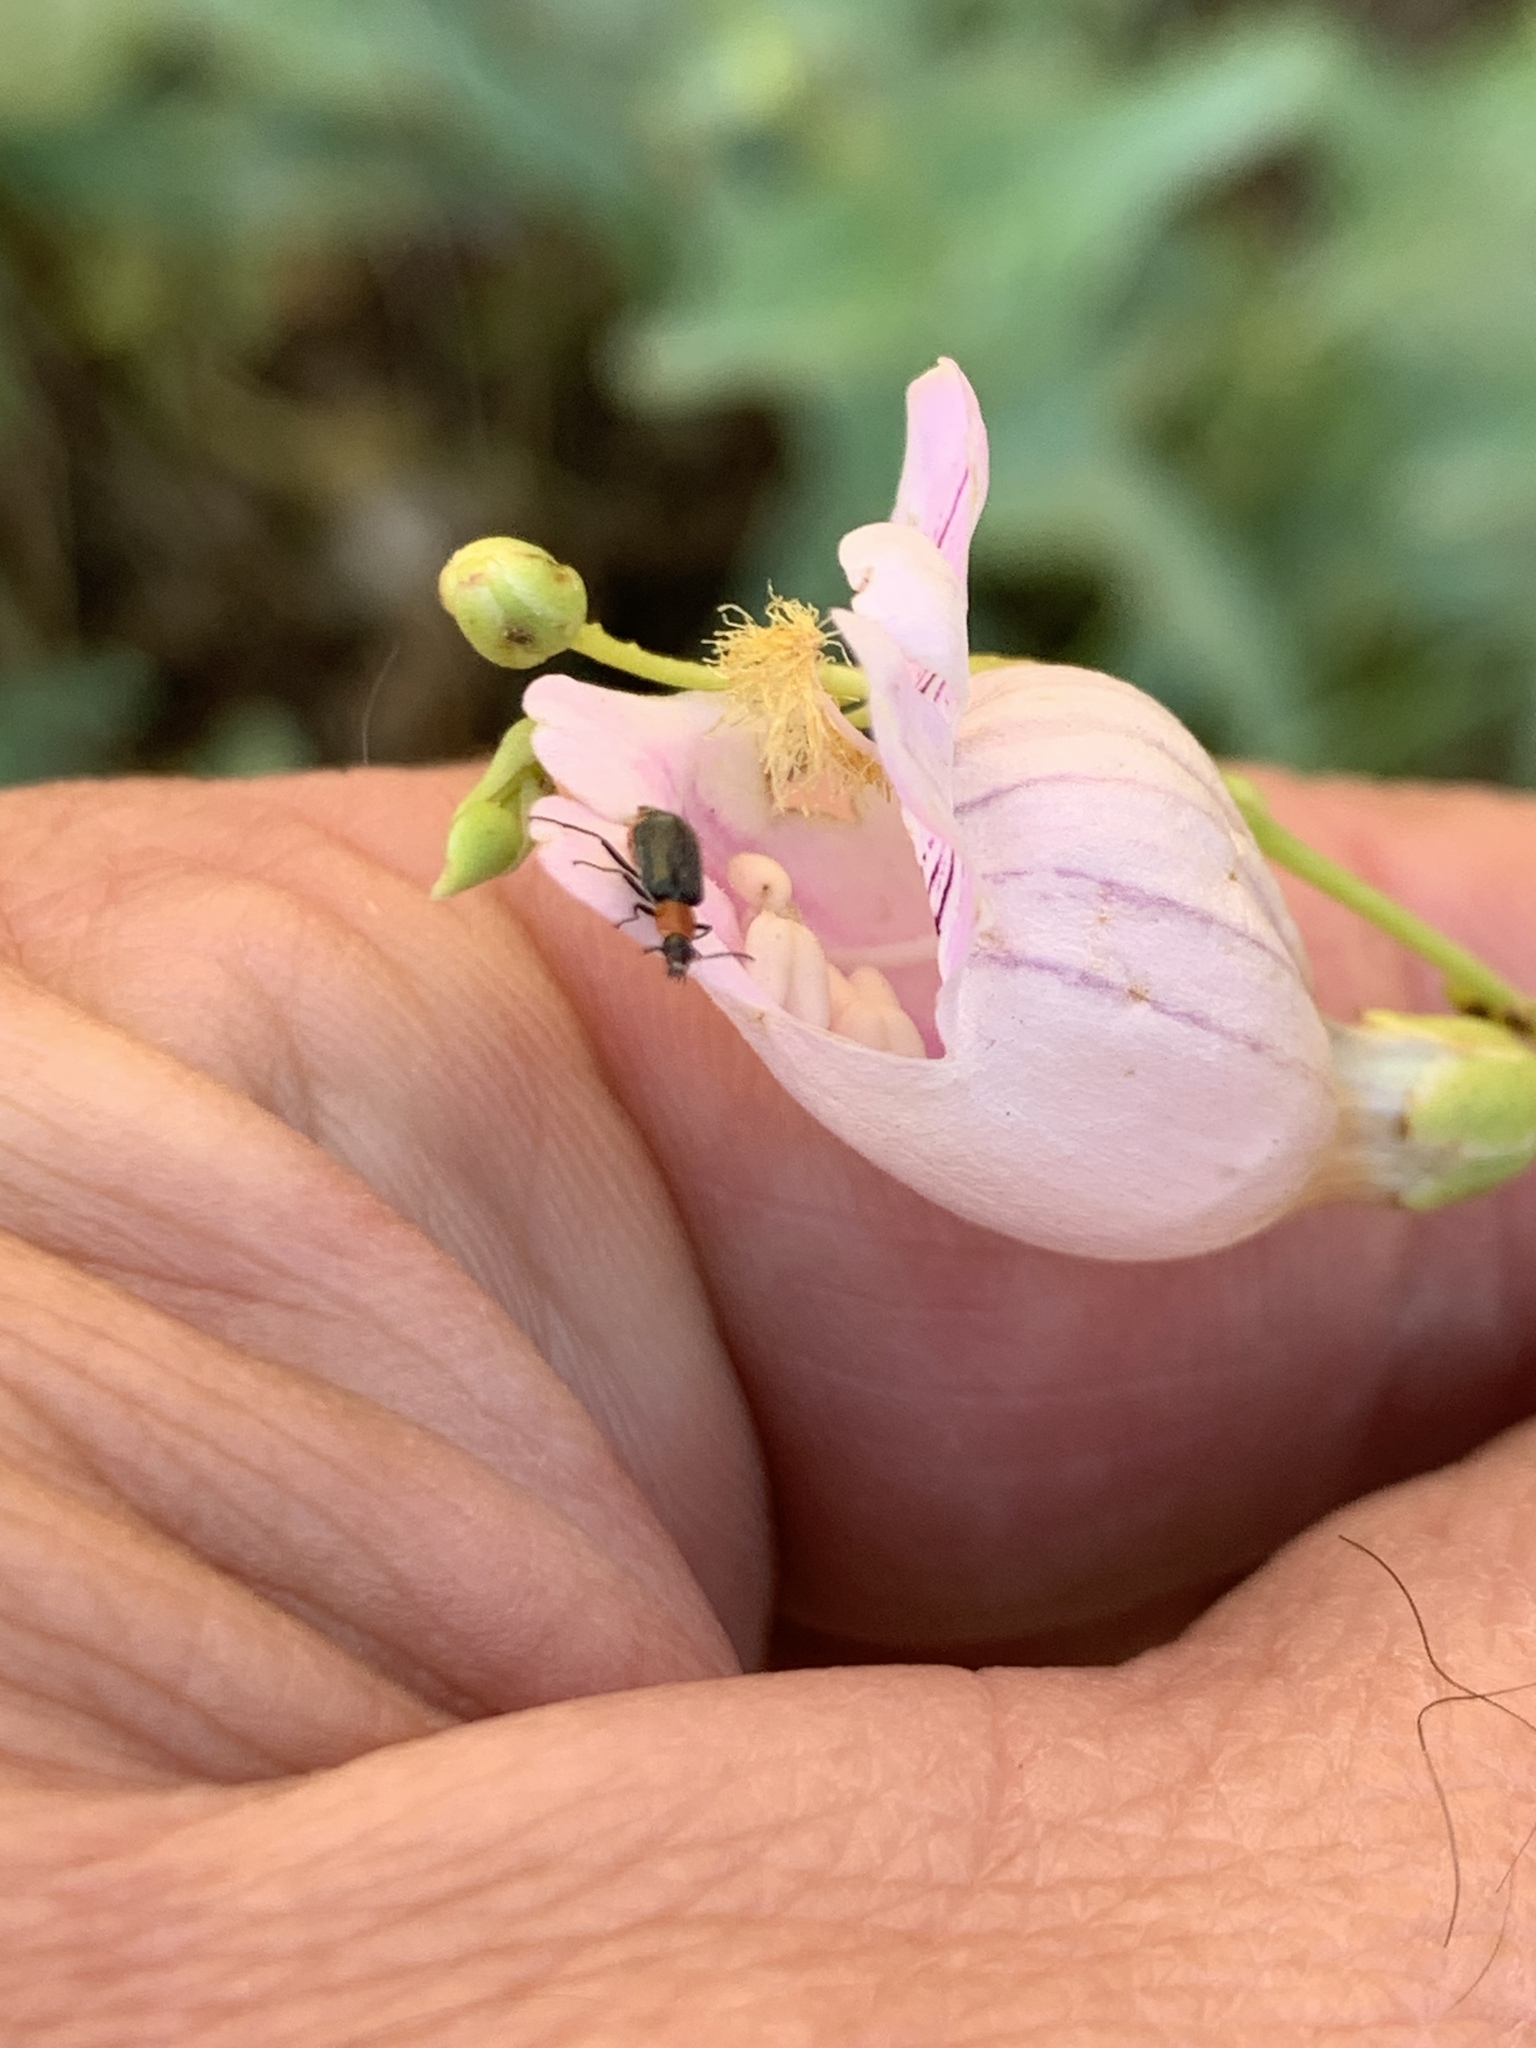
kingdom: Plantae
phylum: Tracheophyta
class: Magnoliopsida
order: Lamiales
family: Plantaginaceae
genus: Penstemon
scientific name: Penstemon palmeri
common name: Palmer penstemon
